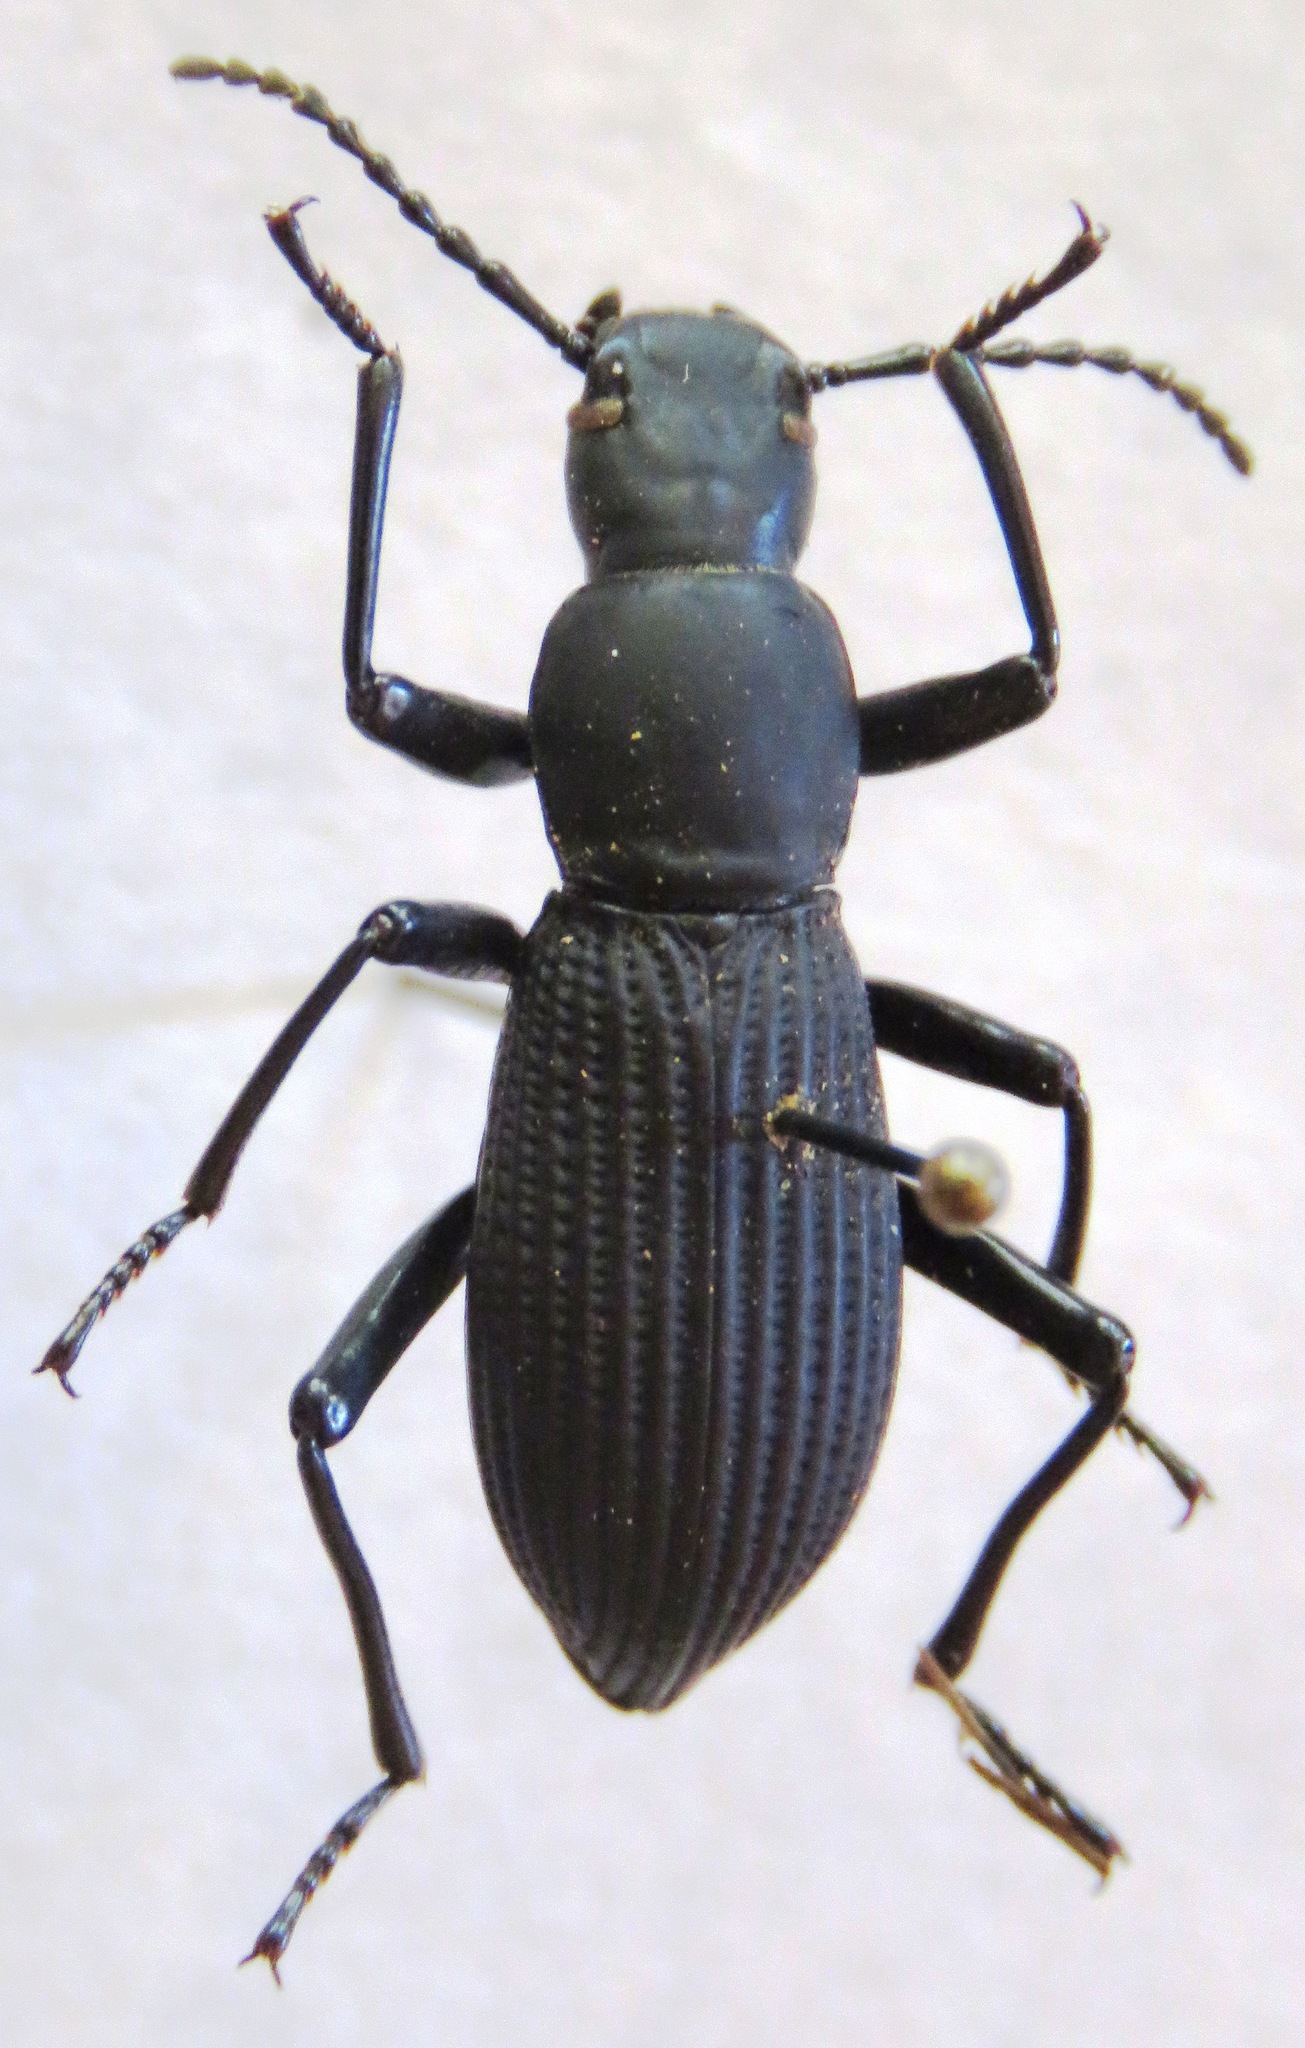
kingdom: Animalia
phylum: Arthropoda
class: Insecta
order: Coleoptera
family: Tenebrionidae
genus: Rhinandrus
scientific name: Rhinandrus elongatus
